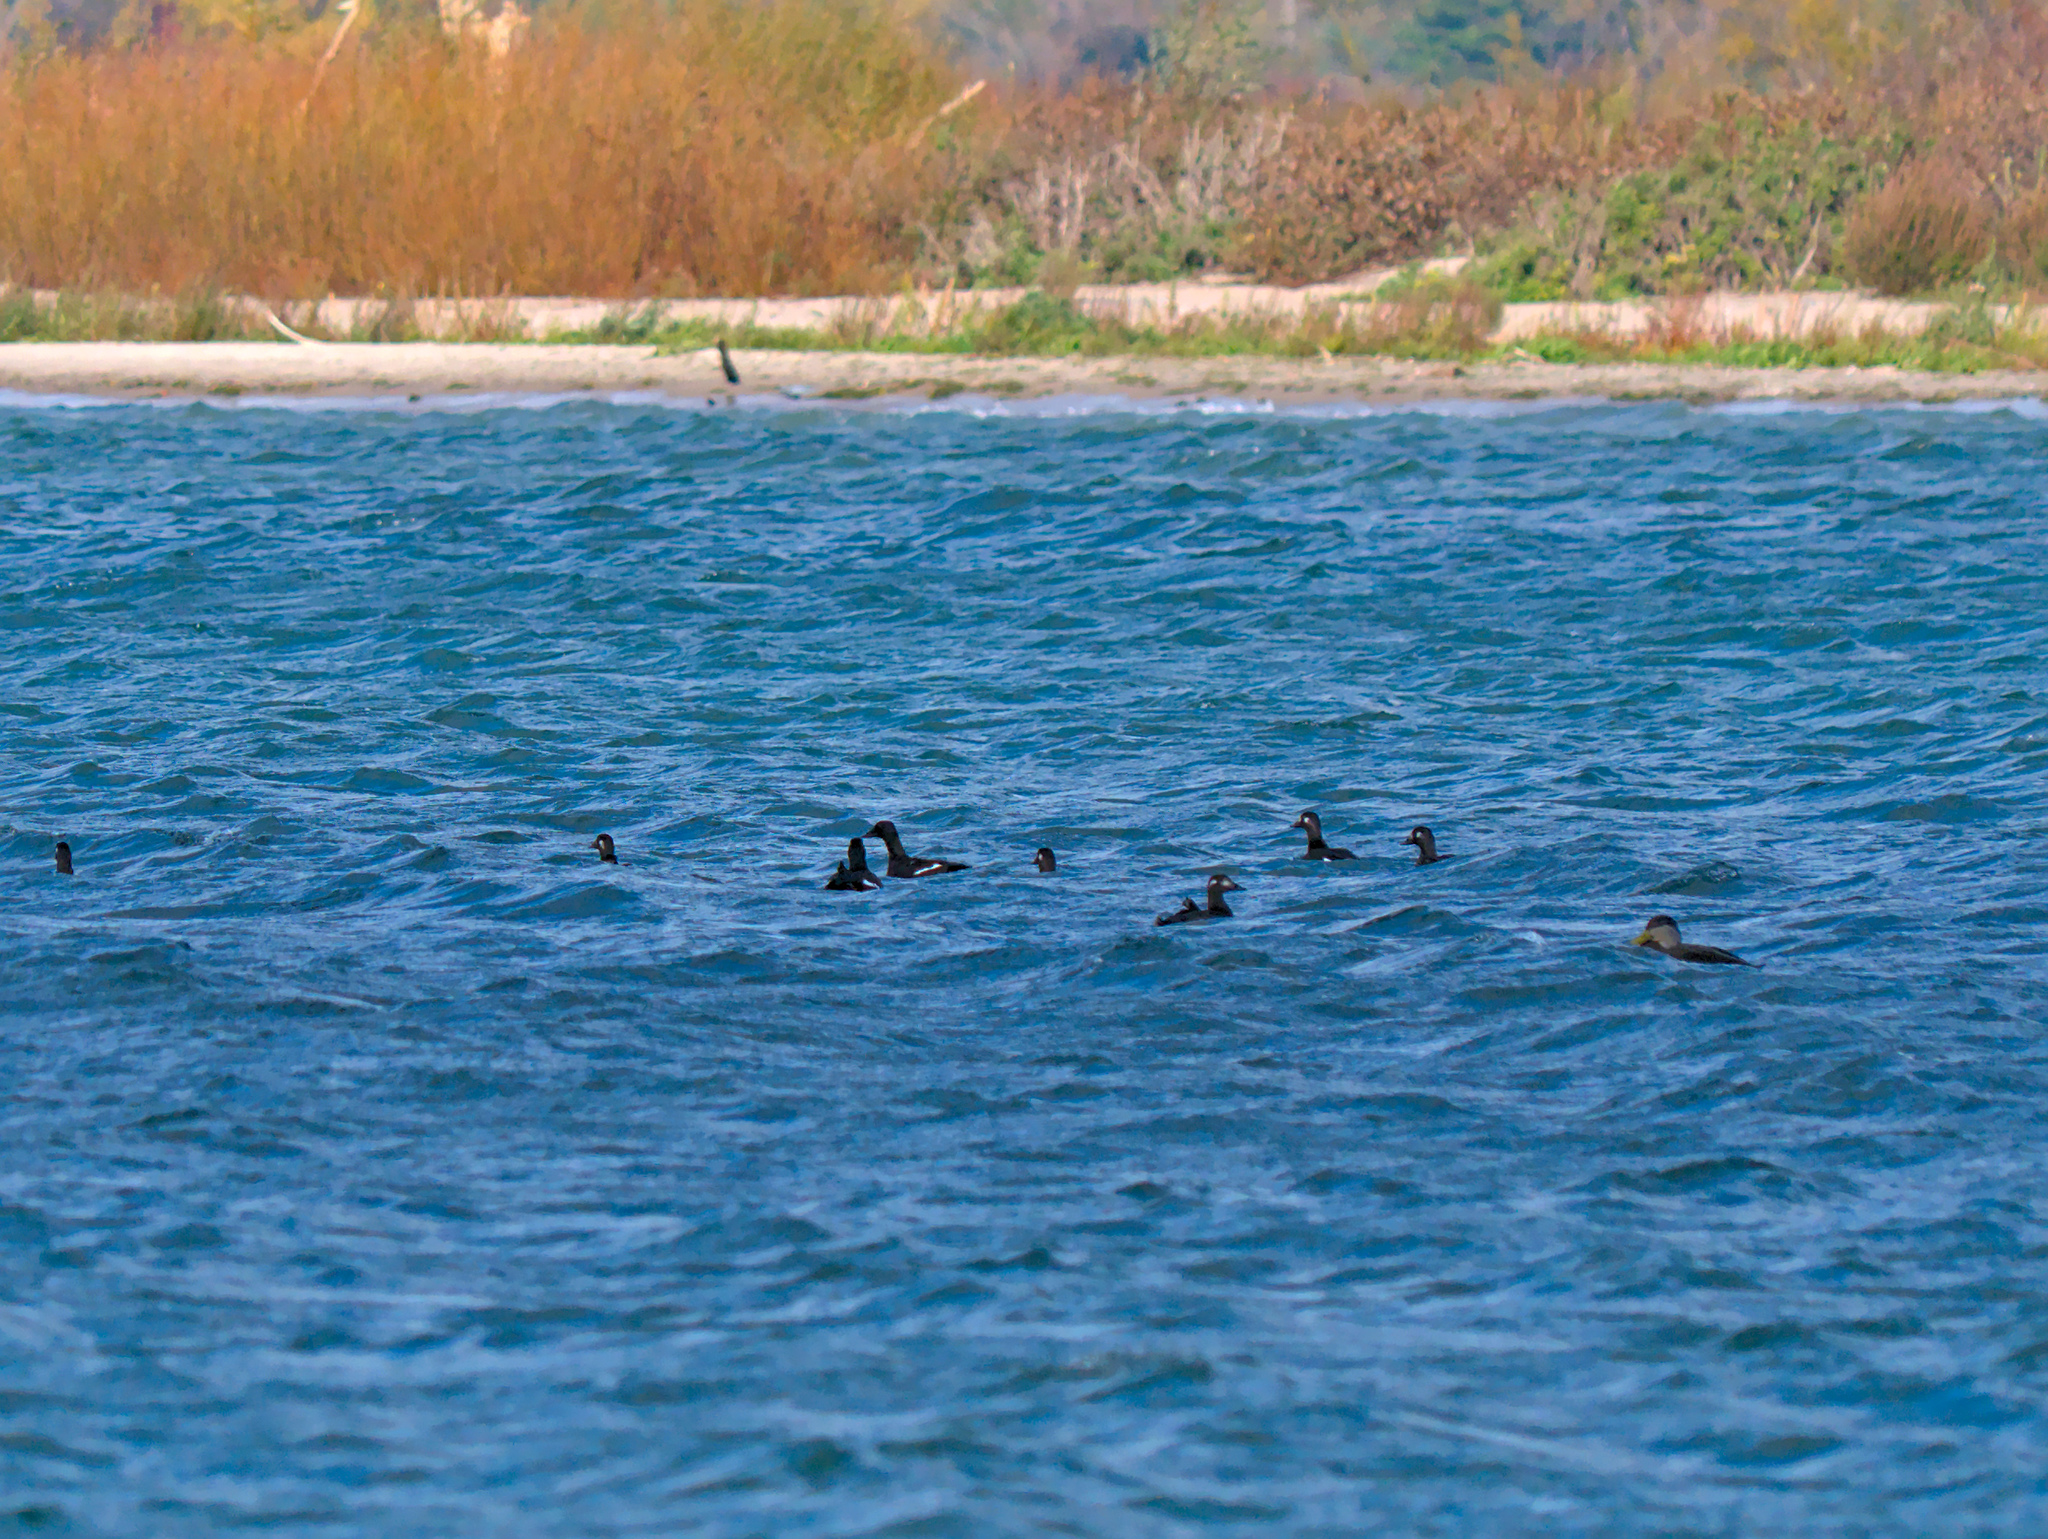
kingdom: Animalia
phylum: Chordata
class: Aves
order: Anseriformes
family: Anatidae
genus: Melanitta
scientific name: Melanitta deglandi
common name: White-winged scoter
